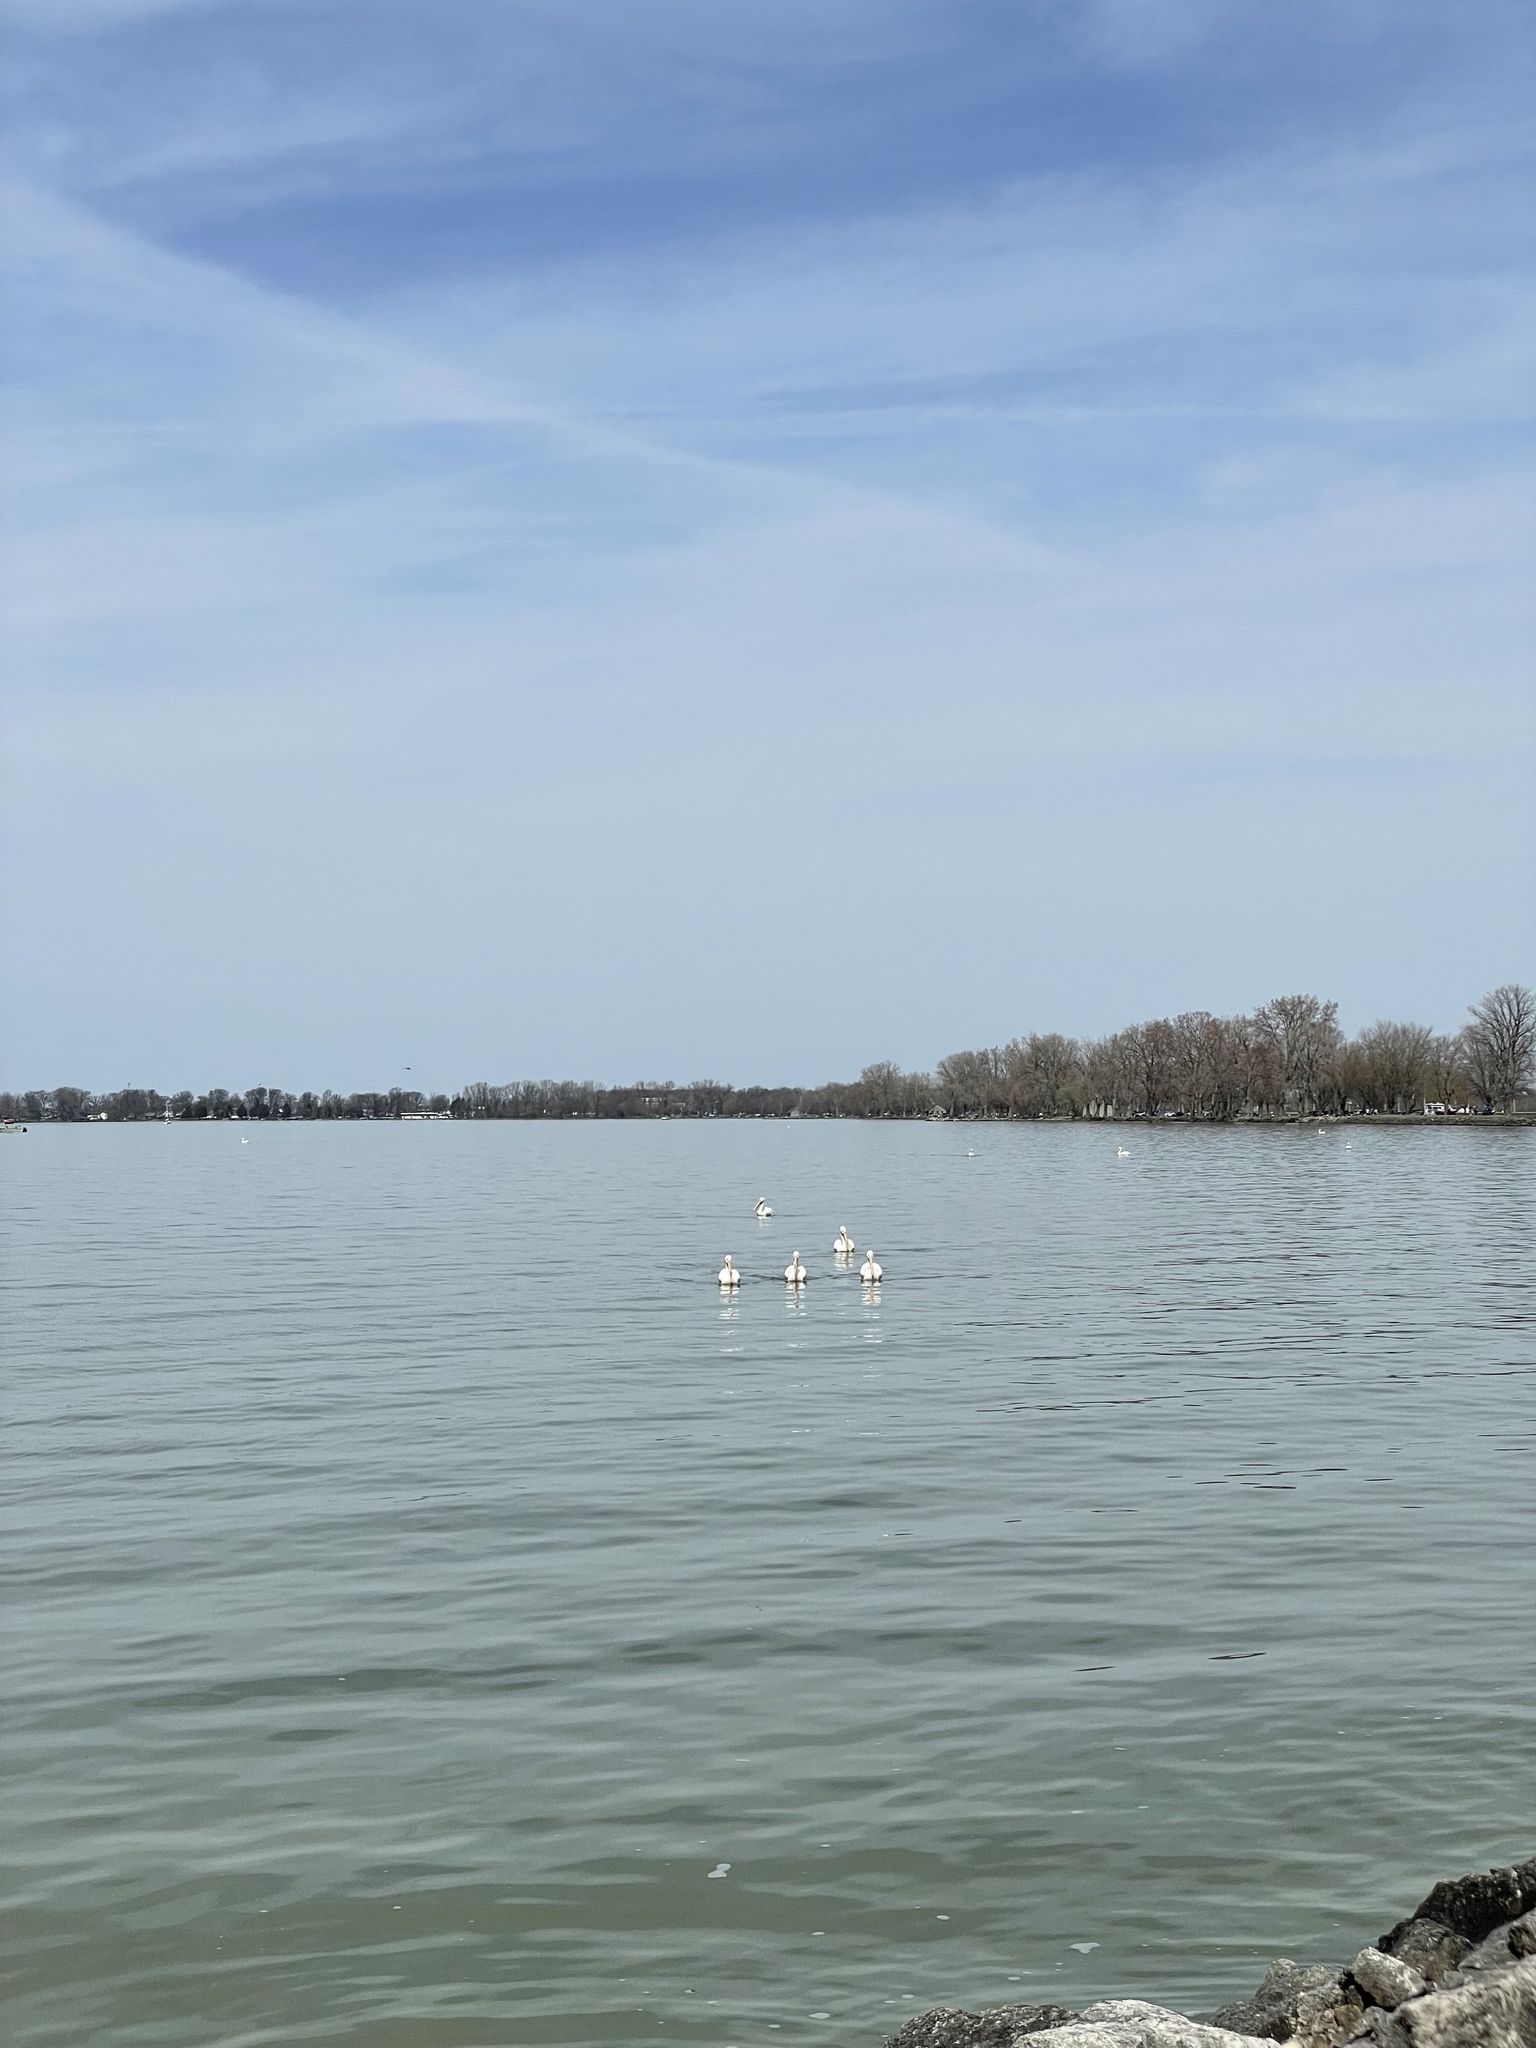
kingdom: Animalia
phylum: Chordata
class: Aves
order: Pelecaniformes
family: Pelecanidae
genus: Pelecanus
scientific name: Pelecanus erythrorhynchos
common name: American white pelican
